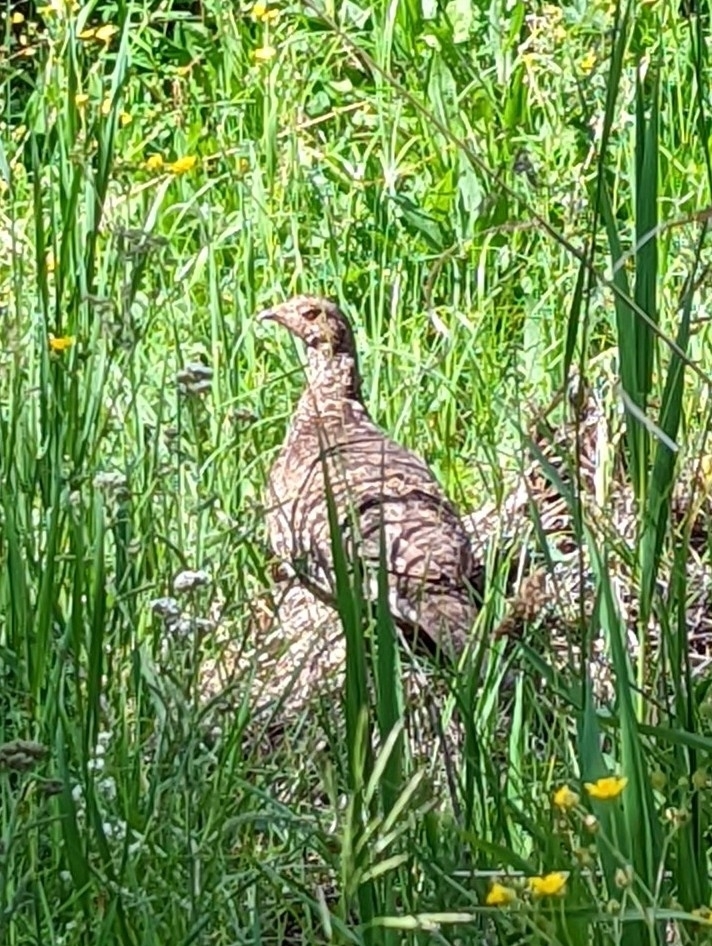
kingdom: Animalia
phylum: Chordata
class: Aves
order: Galliformes
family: Phasianidae
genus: Dendragapus
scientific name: Dendragapus obscurus
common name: Dusky grouse
